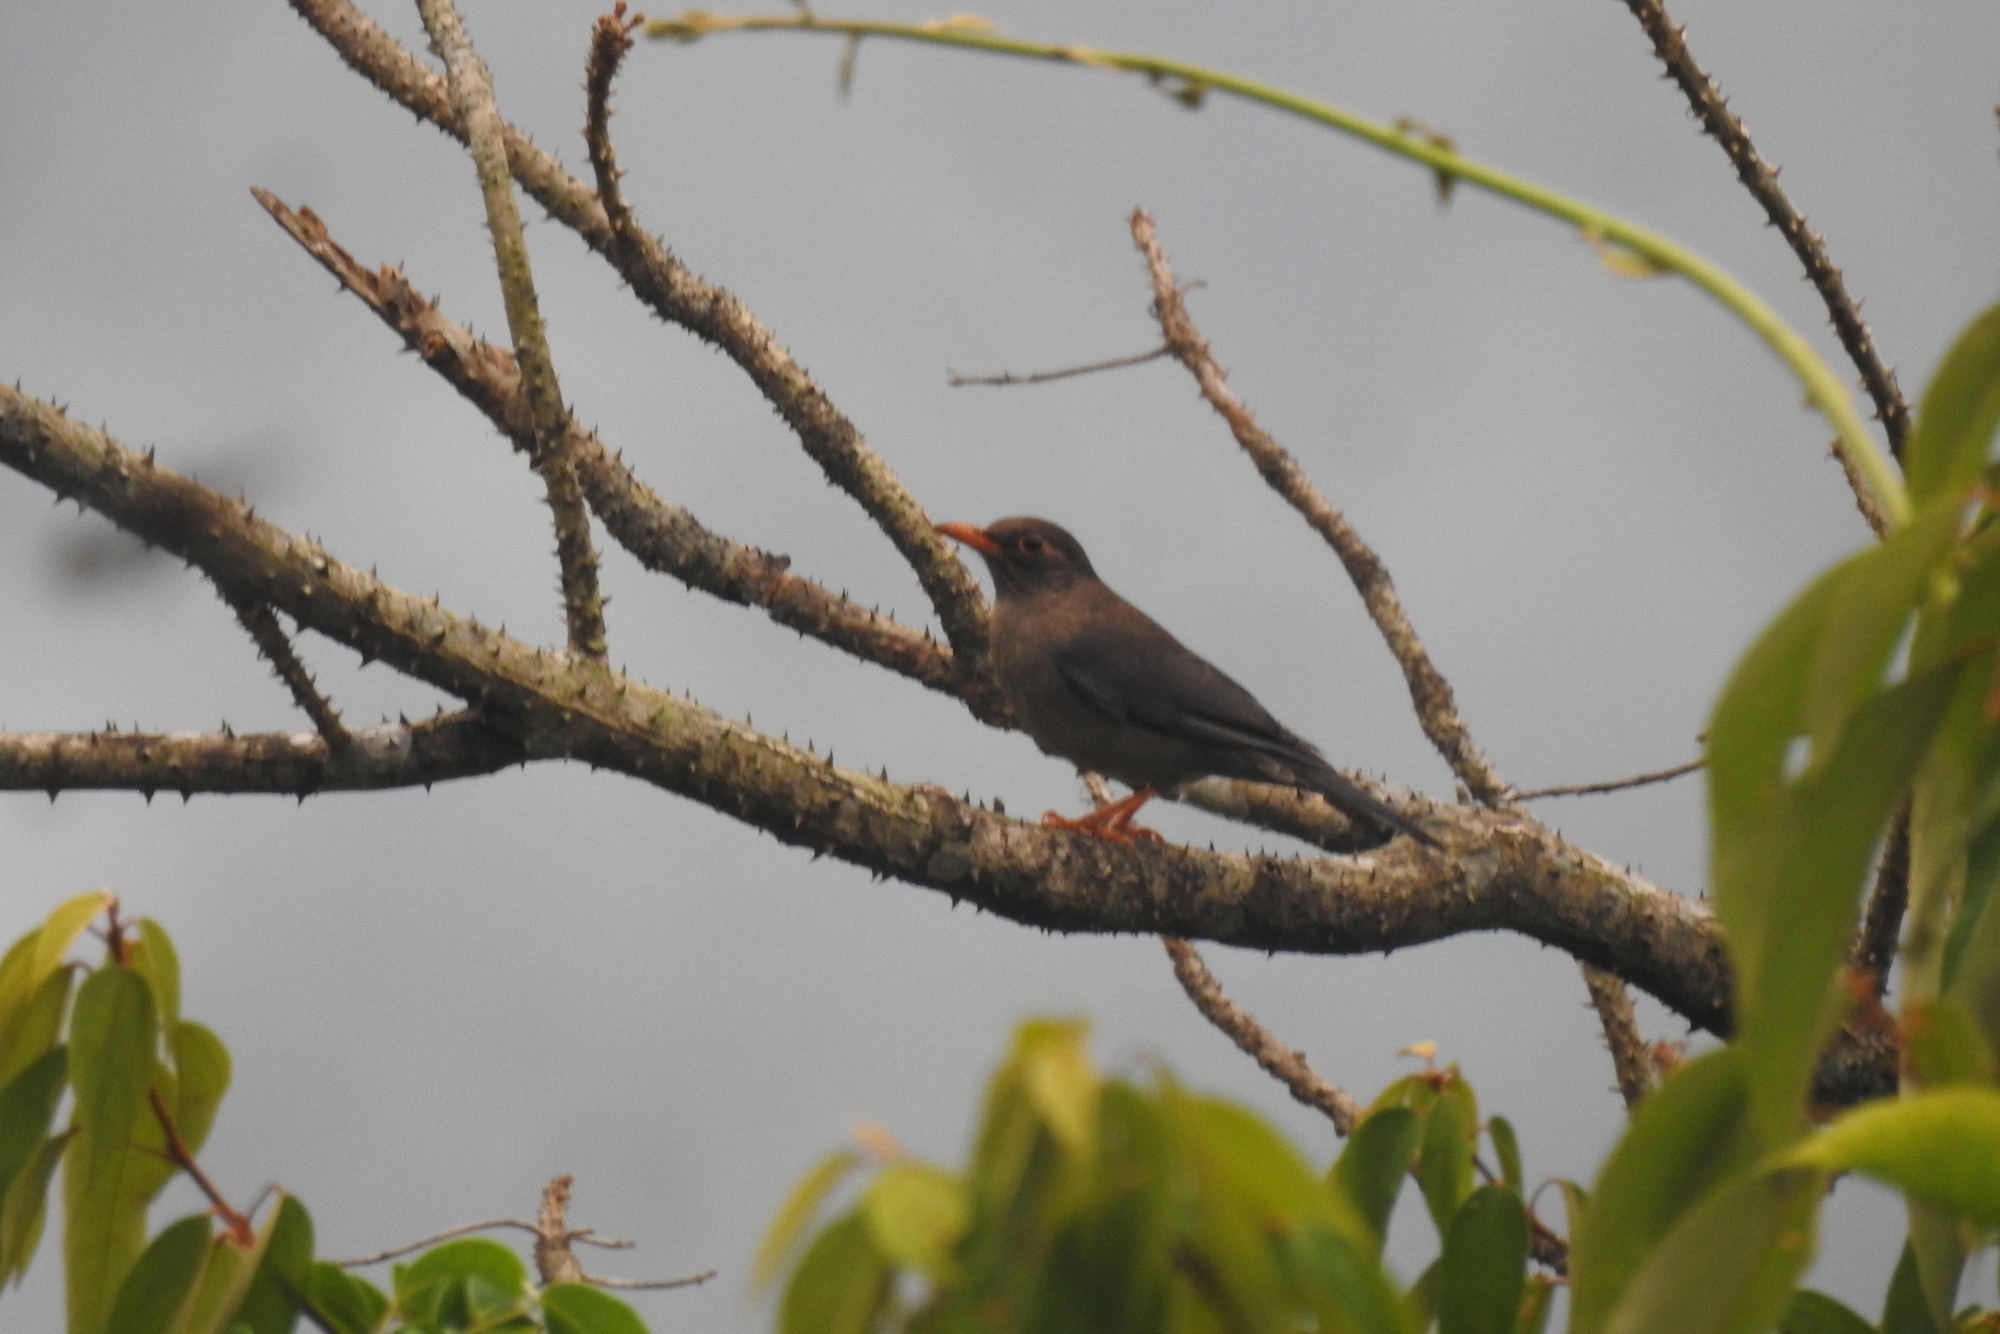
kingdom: Animalia
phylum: Chordata
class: Aves
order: Passeriformes
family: Turdidae
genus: Turdus
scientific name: Turdus simillimus
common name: Indian blackbird
